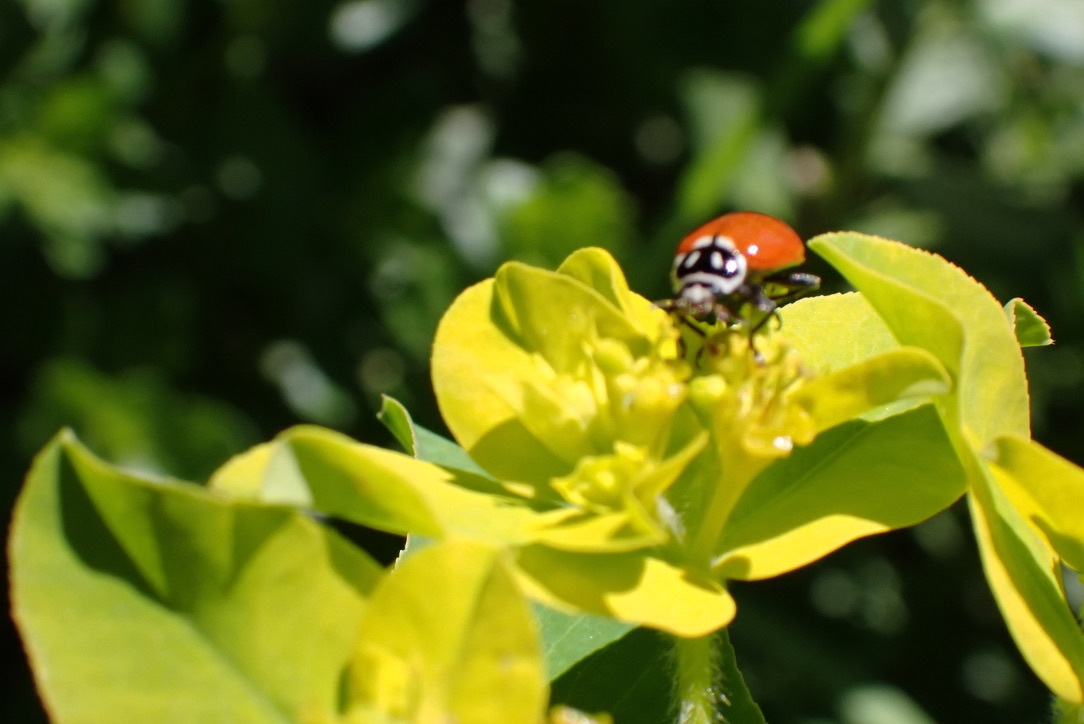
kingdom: Animalia
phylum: Arthropoda
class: Insecta
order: Coleoptera
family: Coccinellidae
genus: Hippodamia
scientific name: Hippodamia convergens
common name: Convergent lady beetle
